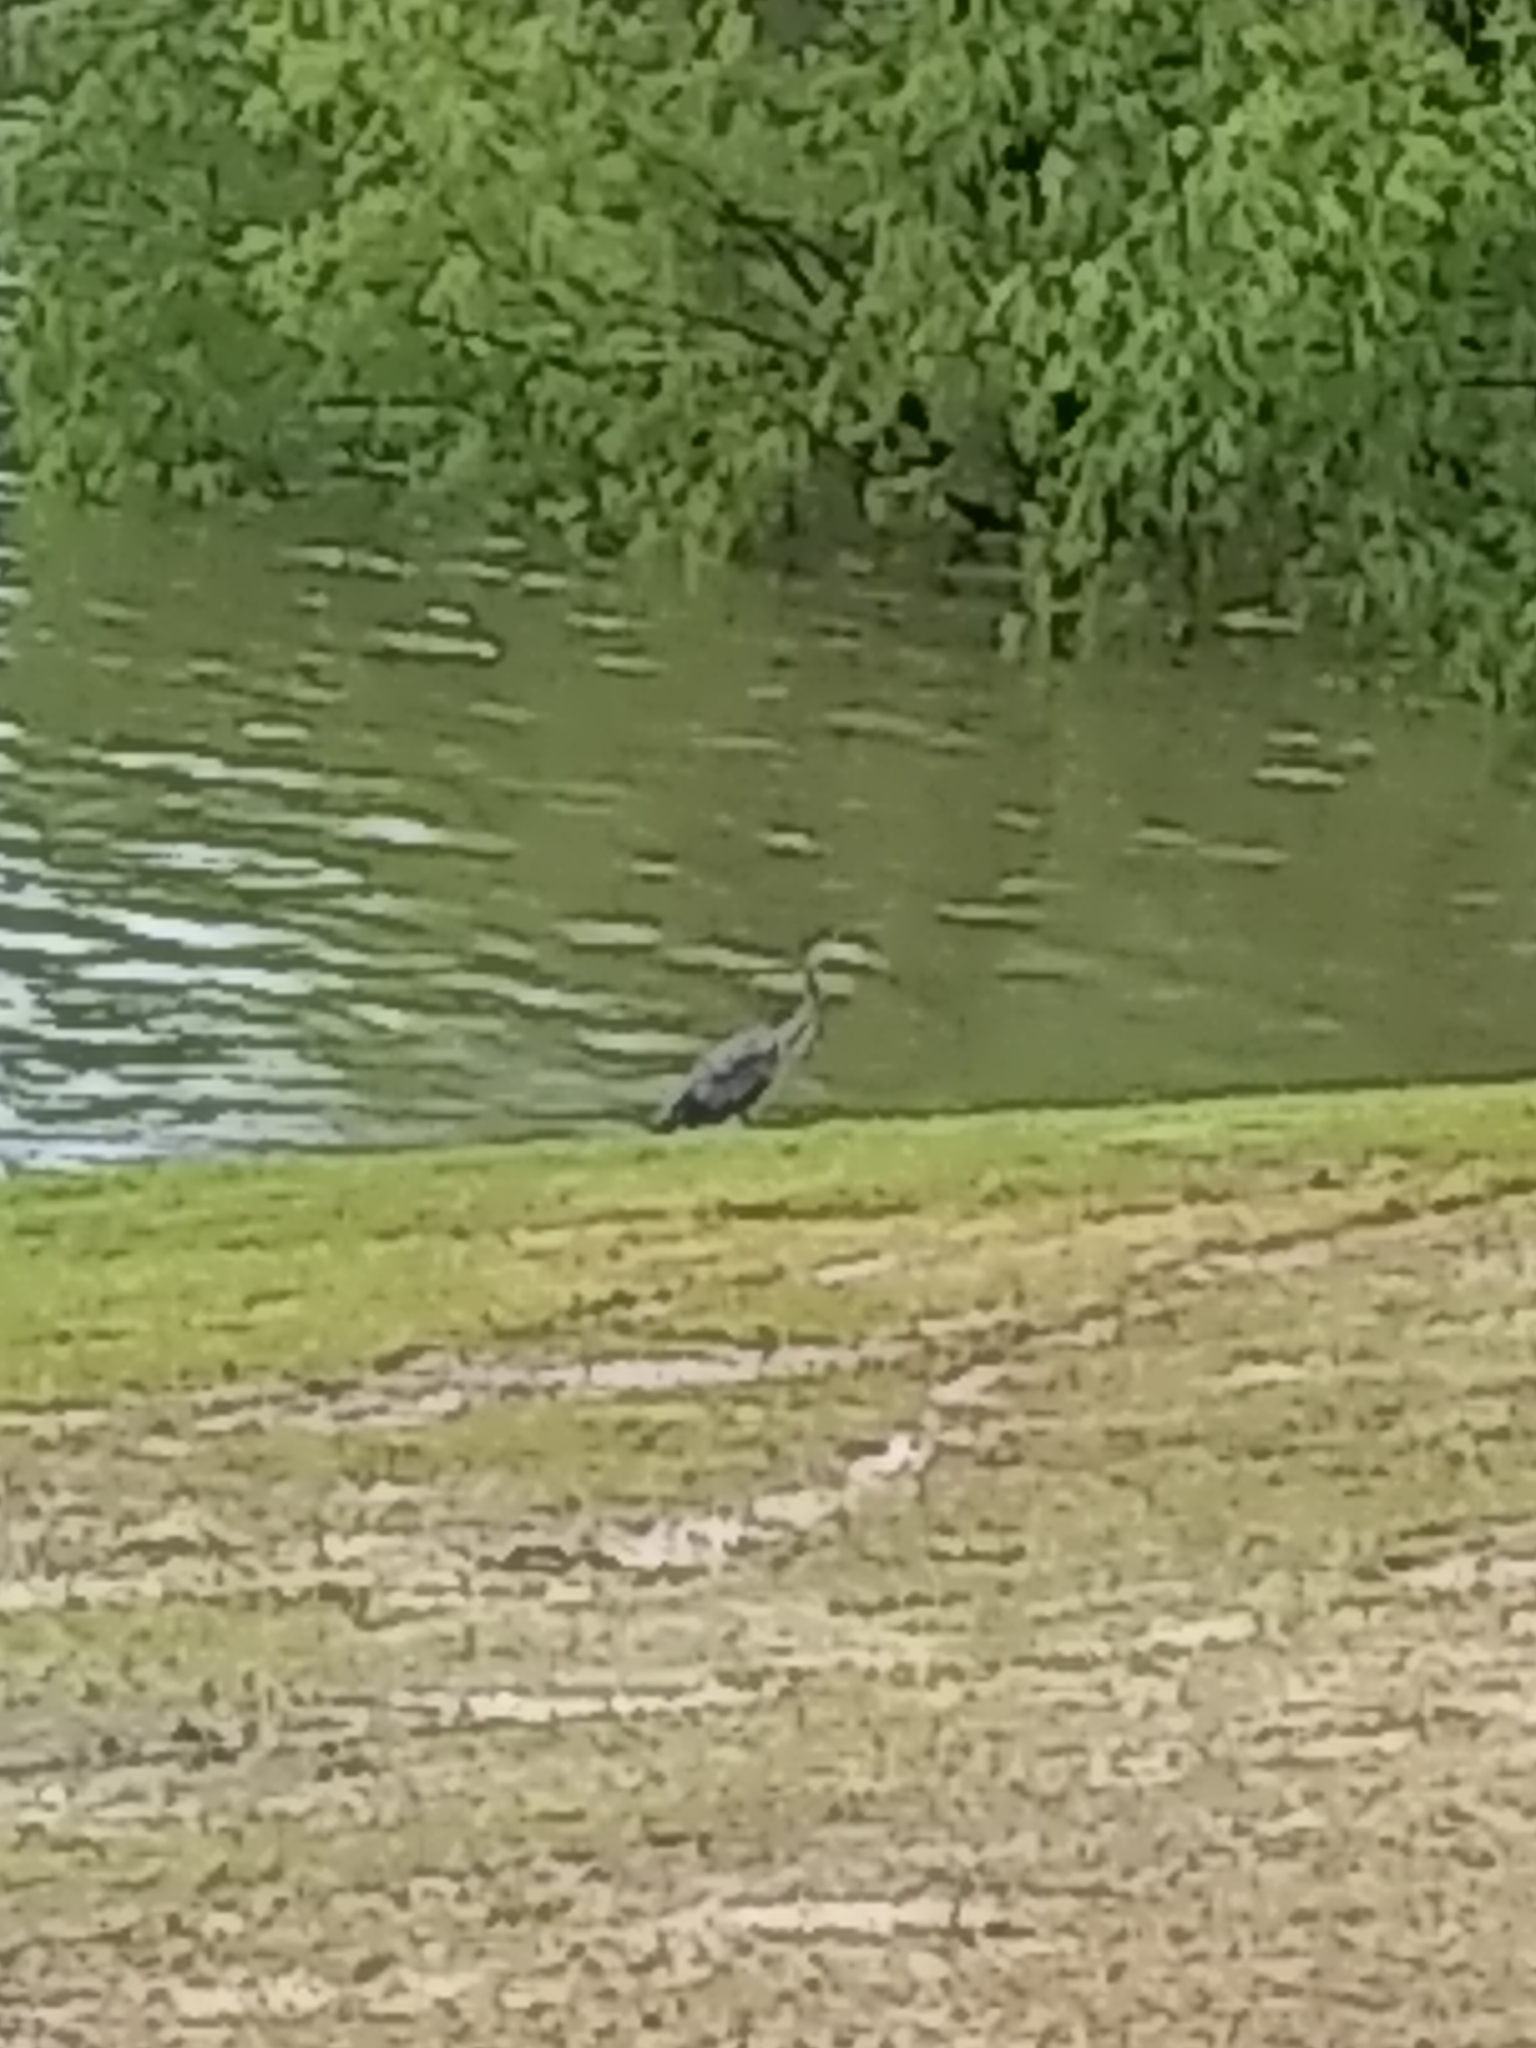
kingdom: Animalia
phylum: Chordata
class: Aves
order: Pelecaniformes
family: Ardeidae
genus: Egretta
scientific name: Egretta caerulea
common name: Little blue heron
